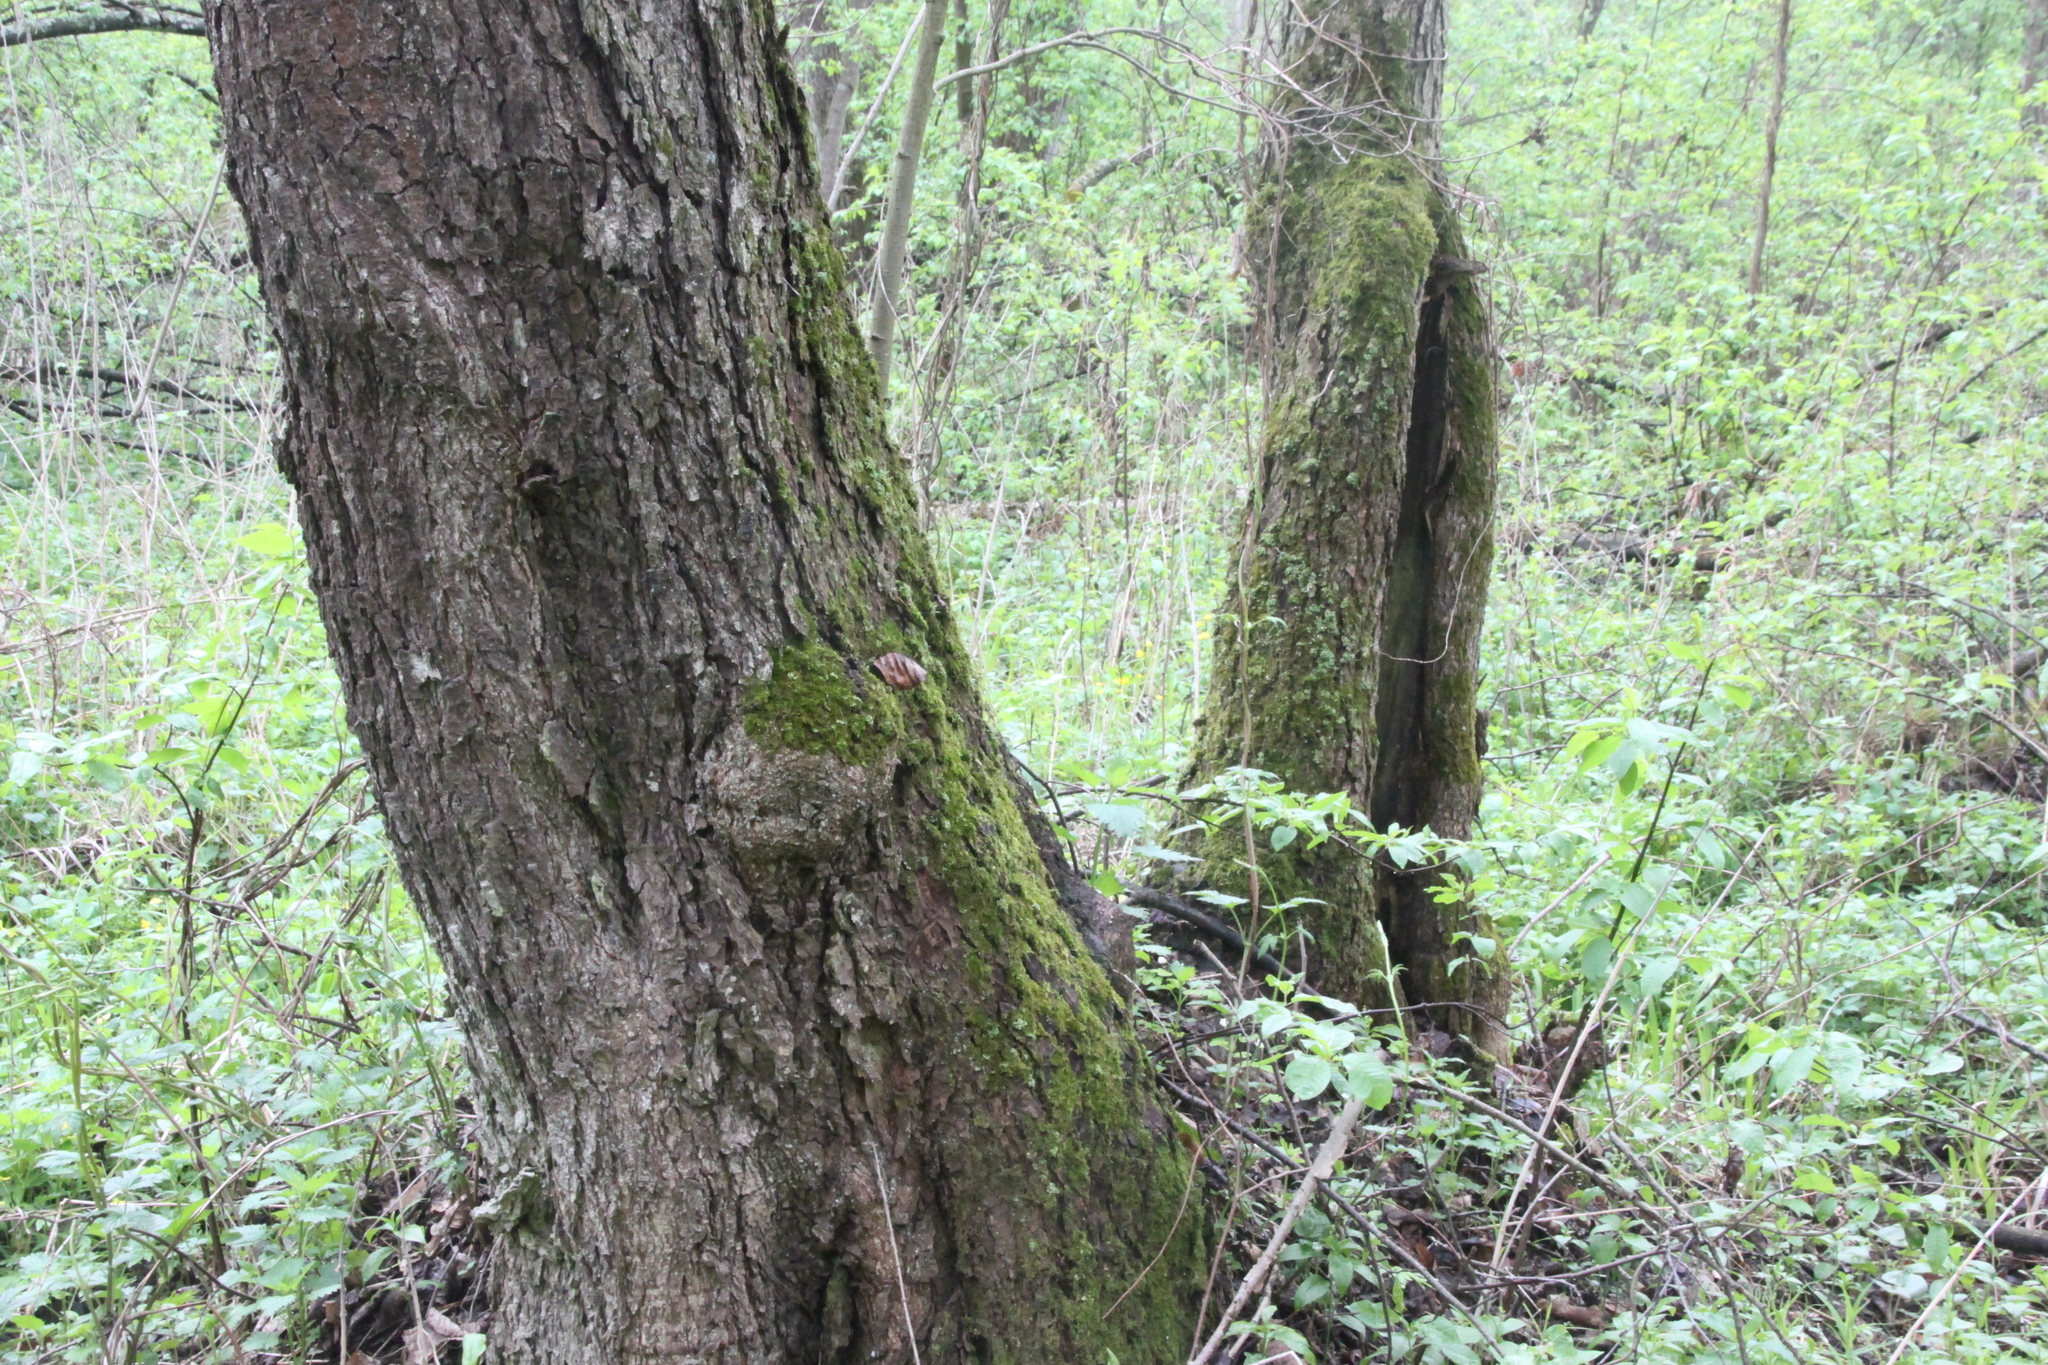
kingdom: Plantae
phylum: Tracheophyta
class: Magnoliopsida
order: Fagales
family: Betulaceae
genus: Alnus
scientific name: Alnus glutinosa
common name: Black alder
